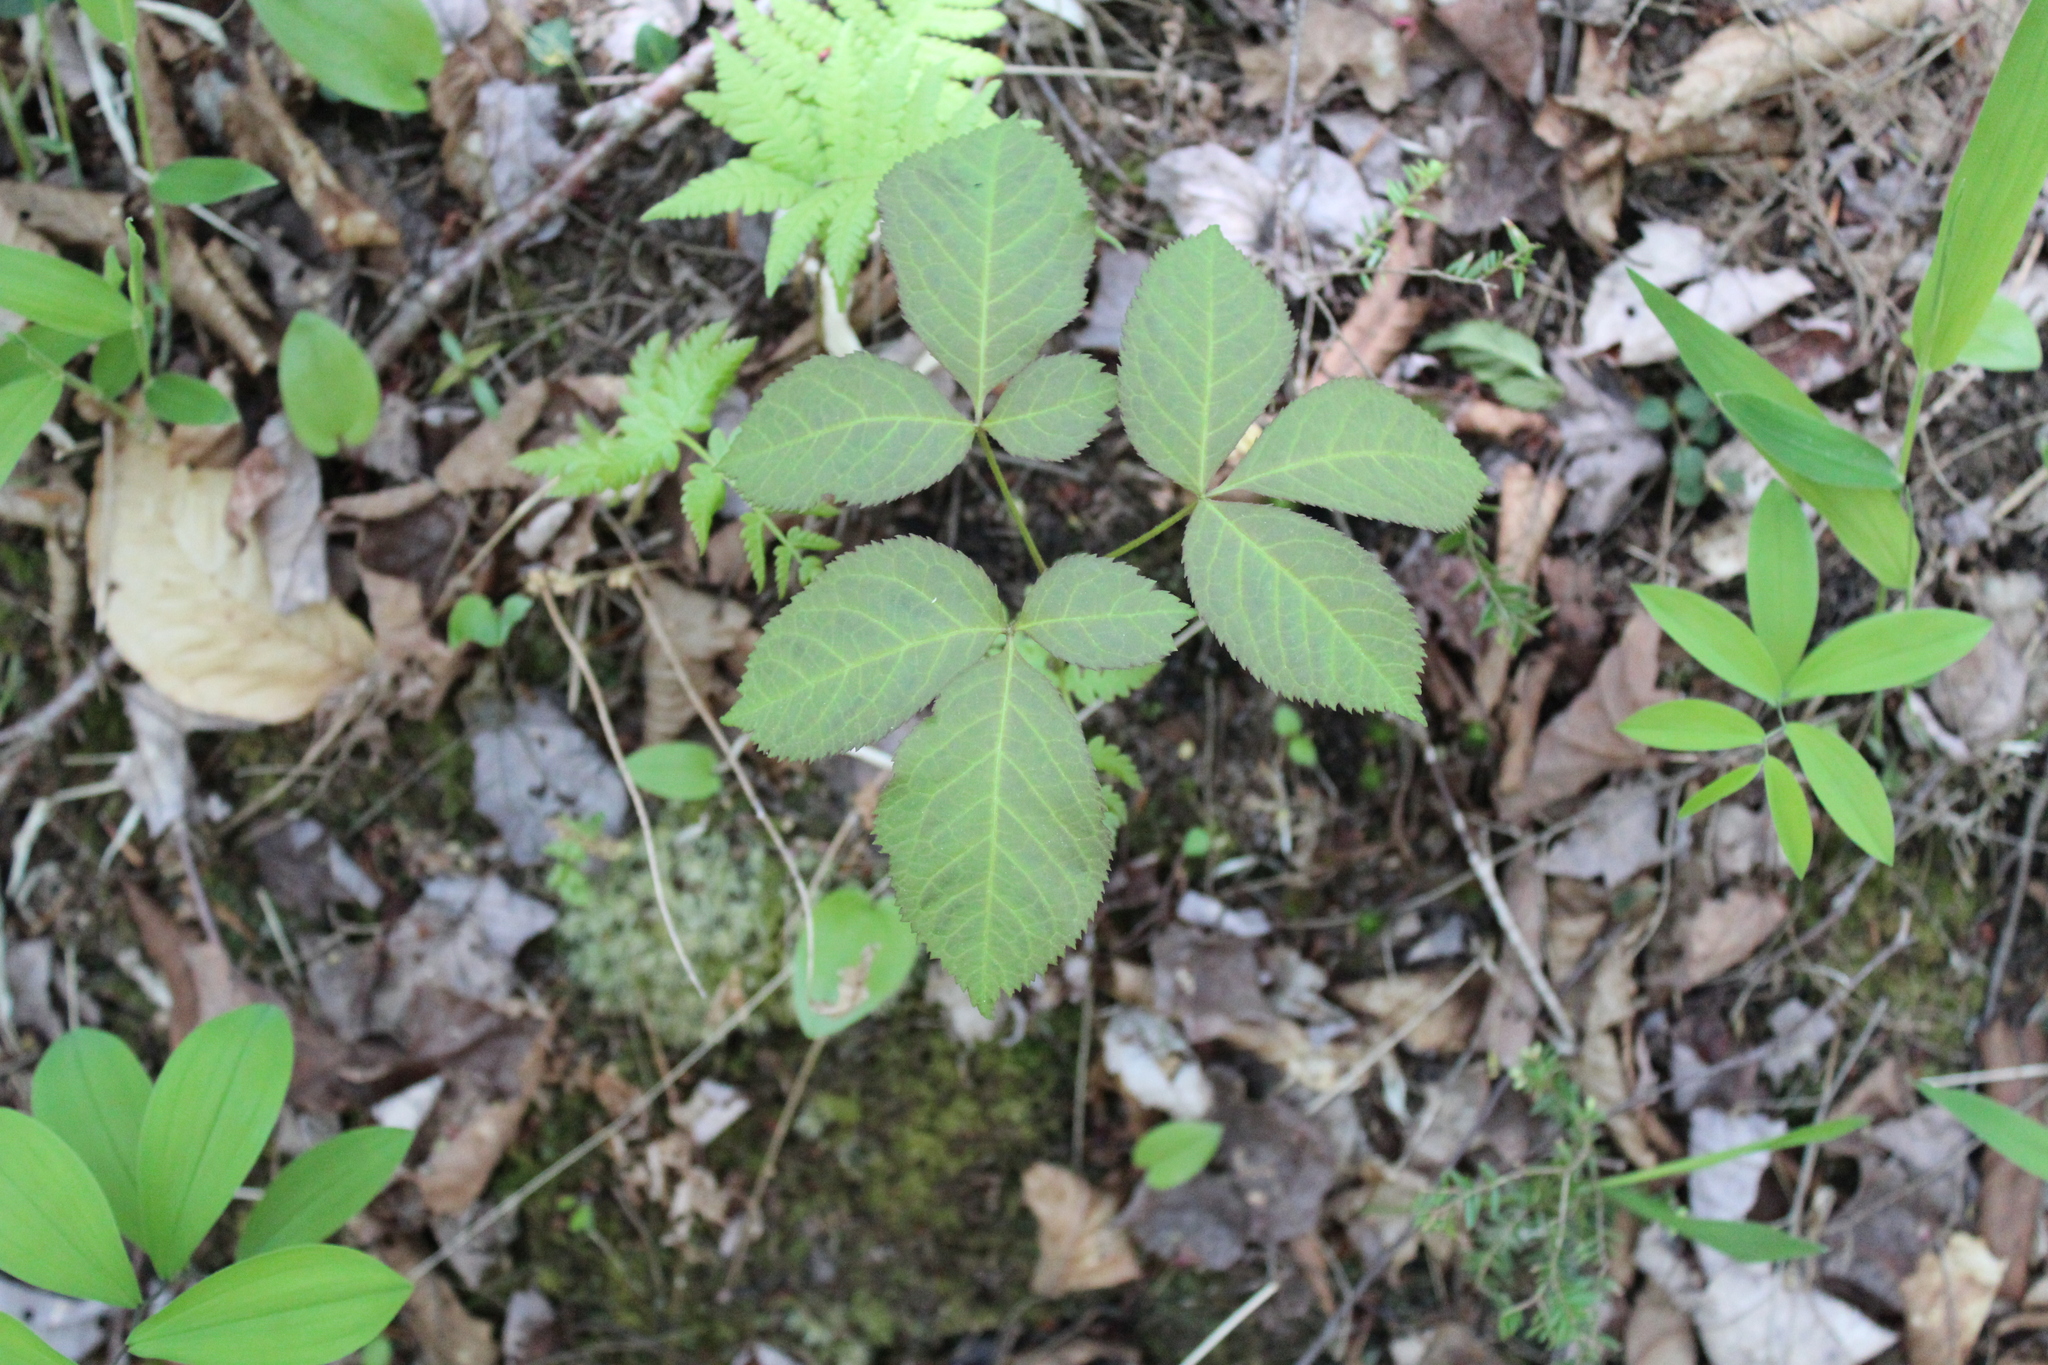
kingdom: Plantae
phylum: Tracheophyta
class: Magnoliopsida
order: Apiales
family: Araliaceae
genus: Aralia
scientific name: Aralia nudicaulis
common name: Wild sarsaparilla
